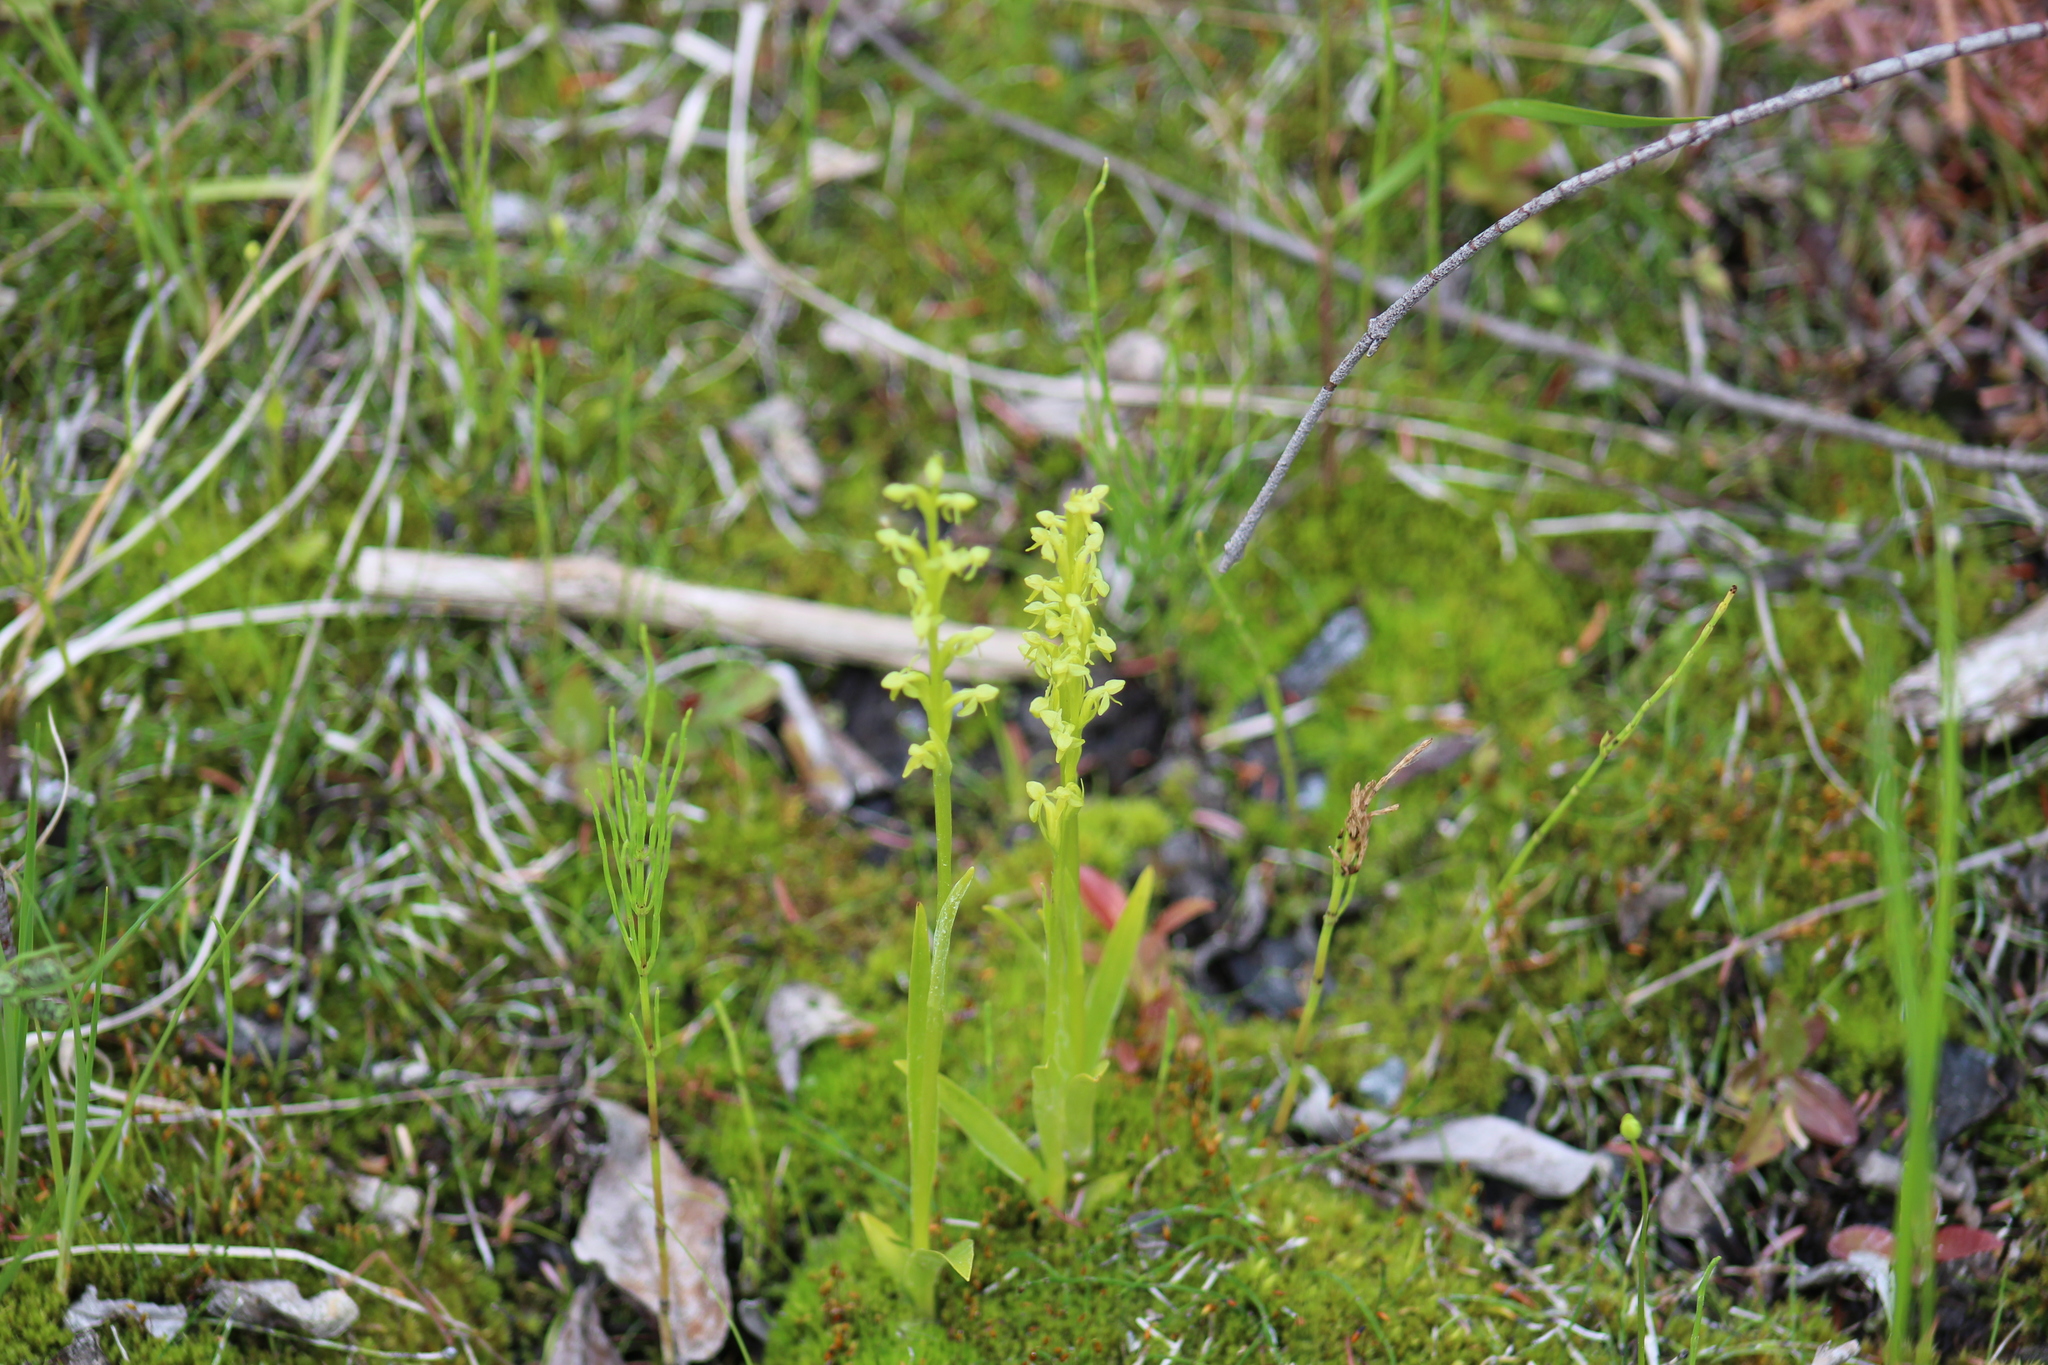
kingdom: Plantae
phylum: Tracheophyta
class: Liliopsida
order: Asparagales
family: Orchidaceae
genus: Platanthera
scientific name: Platanthera aquilonis
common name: Northern green orchid
